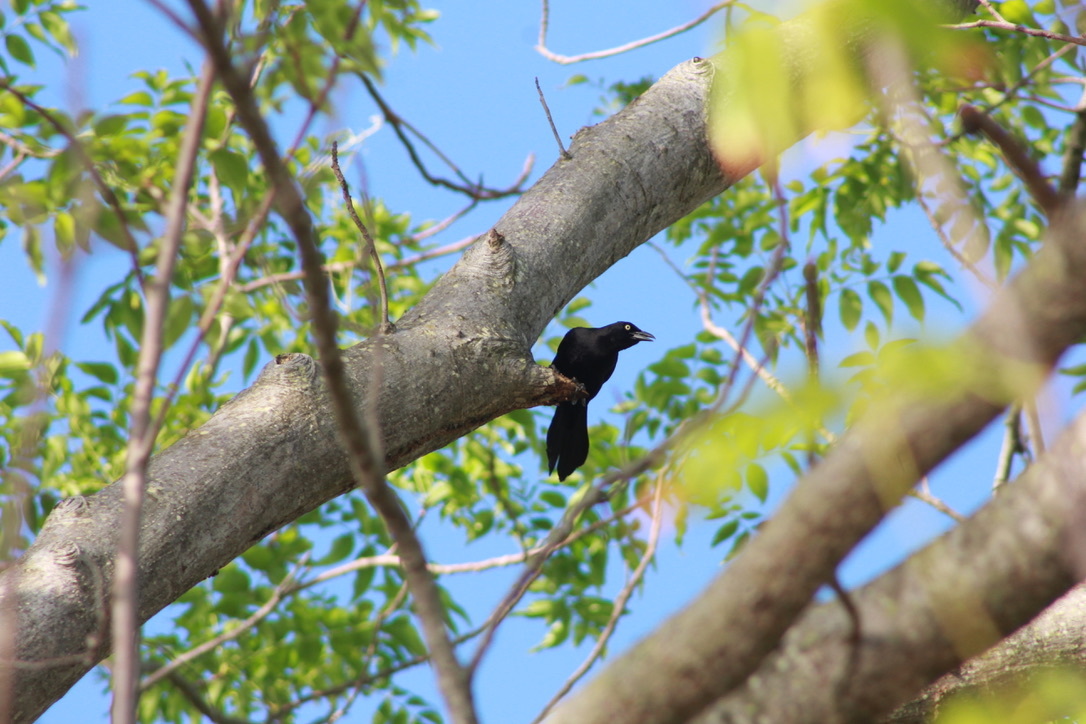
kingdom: Animalia
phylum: Chordata
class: Aves
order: Passeriformes
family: Icteridae
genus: Quiscalus
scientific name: Quiscalus lugubris
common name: Carib grackle
